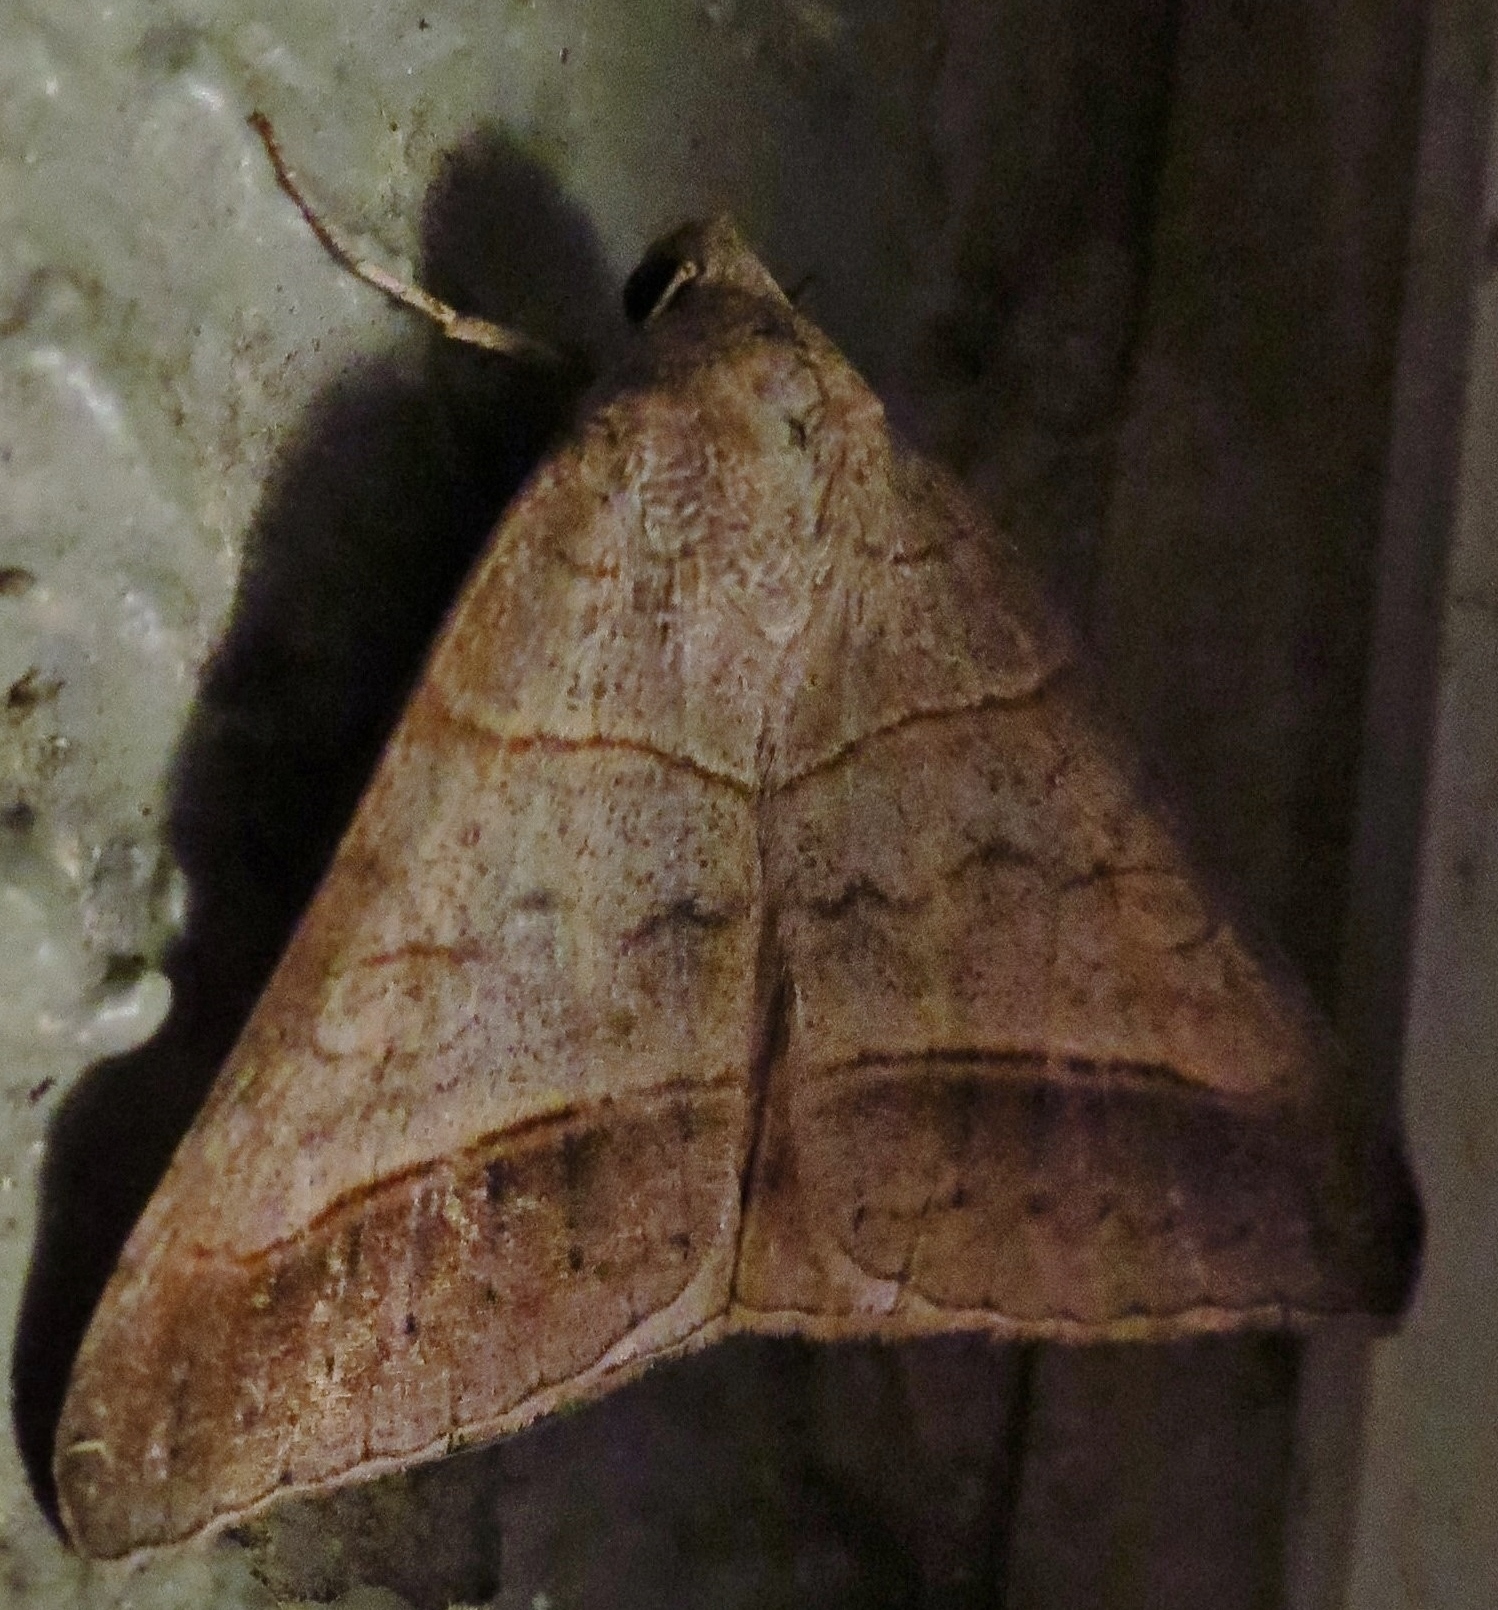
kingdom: Animalia
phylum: Arthropoda
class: Insecta
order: Lepidoptera
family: Erebidae
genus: Mocis
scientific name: Mocis texana
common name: Texas mocis moth
